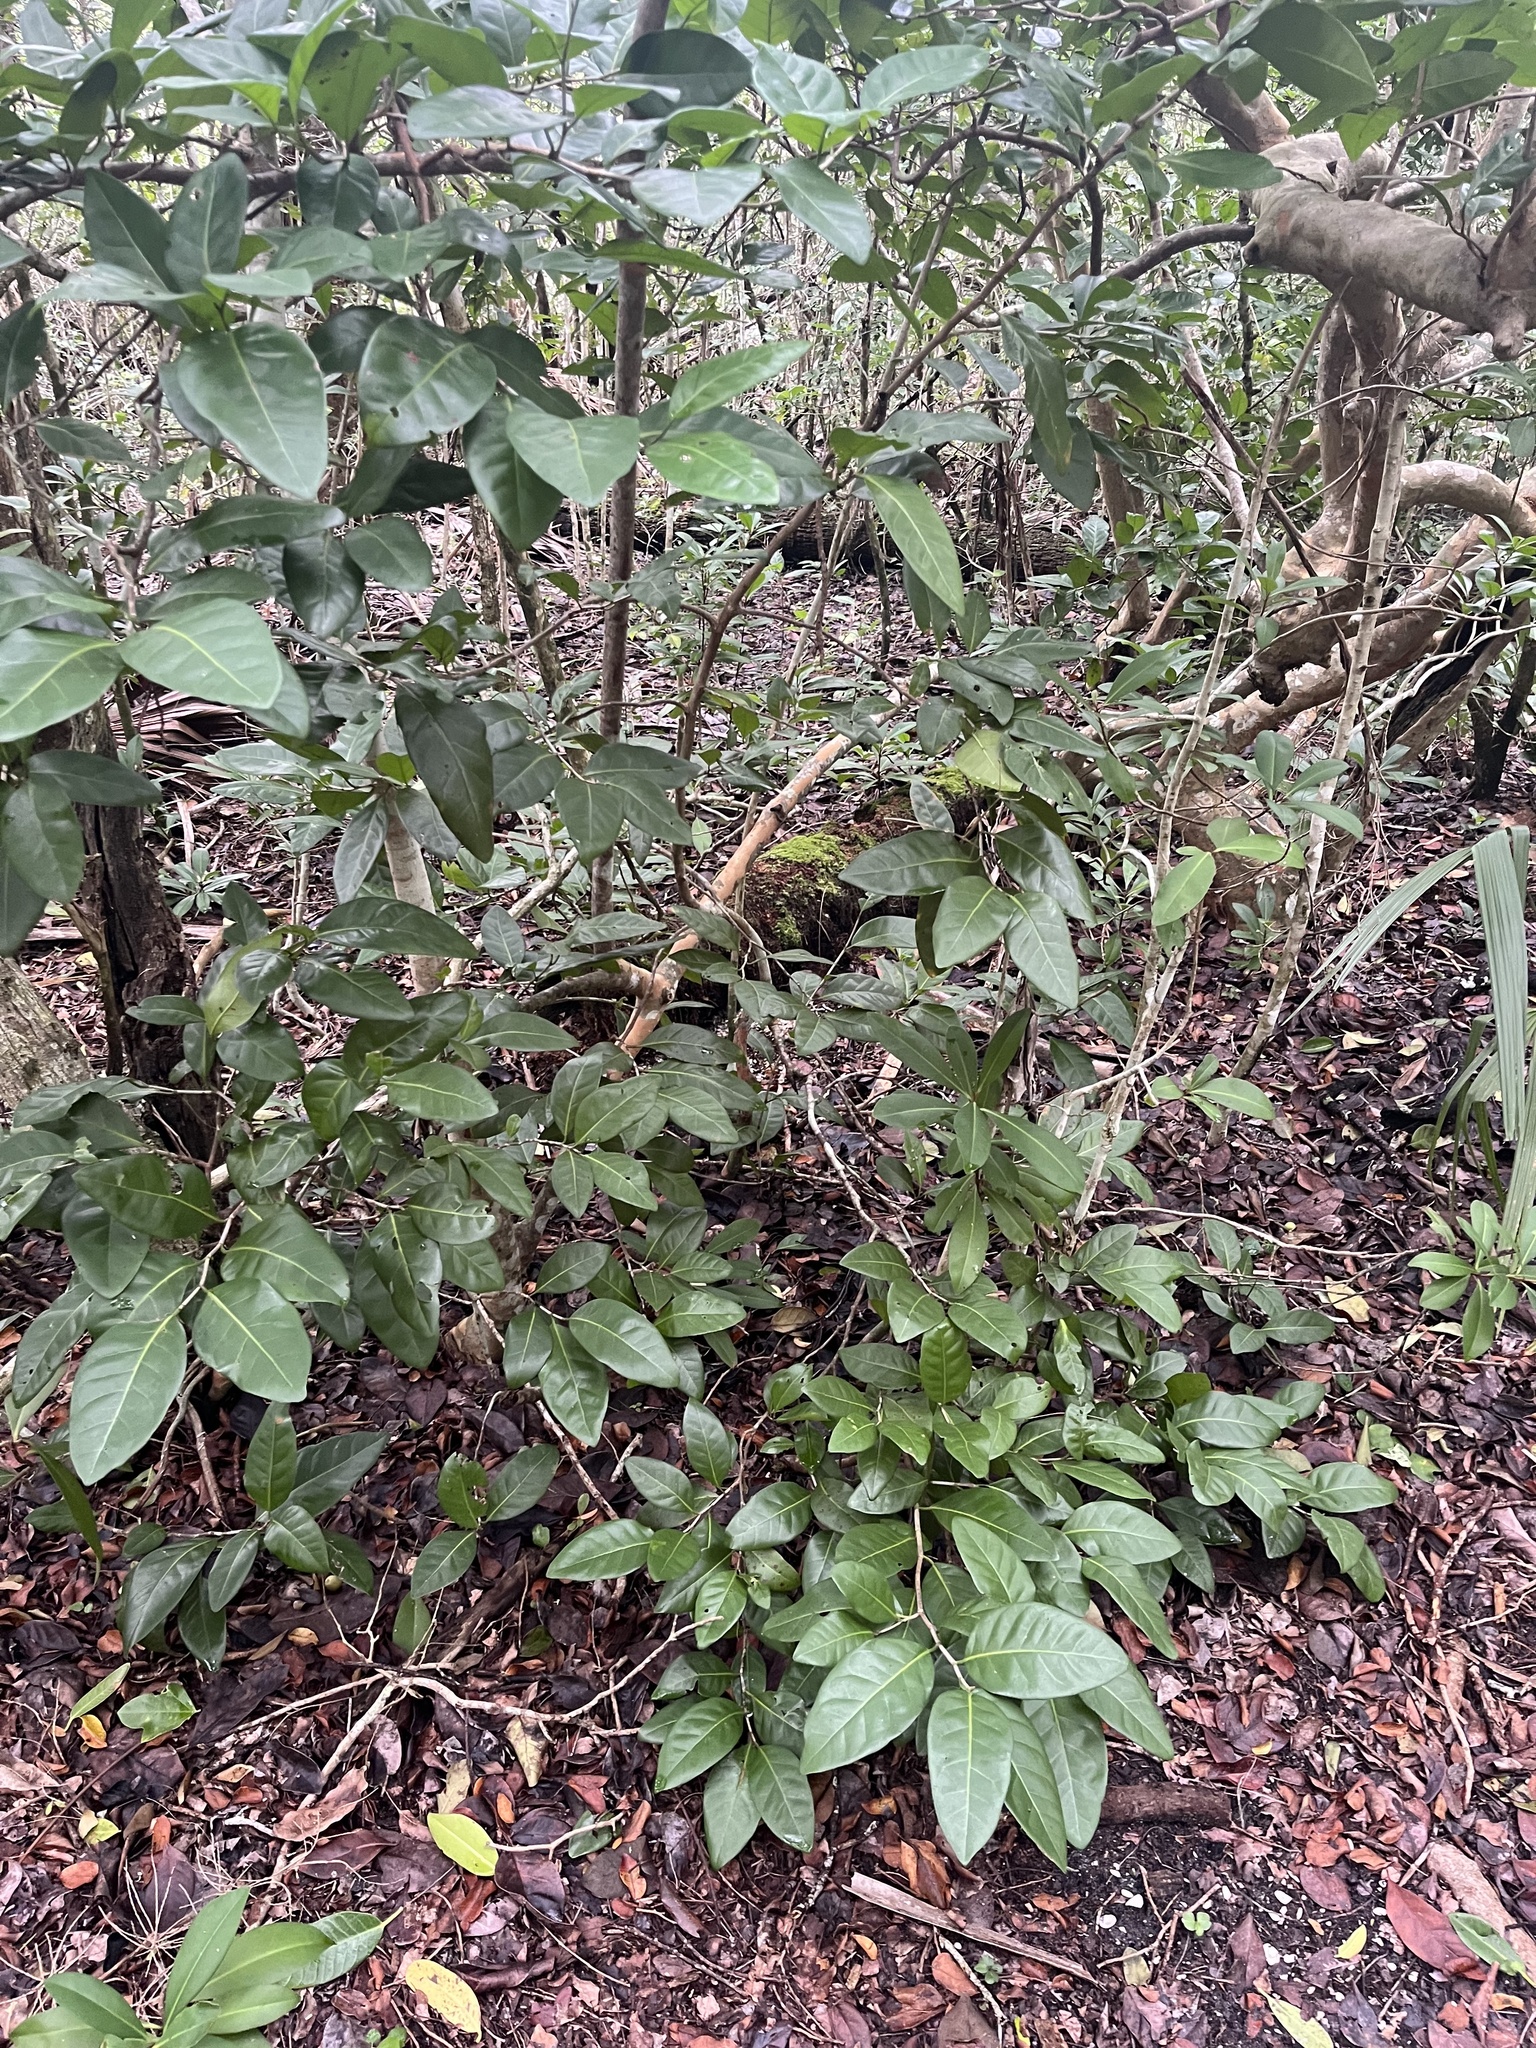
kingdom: Plantae
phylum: Tracheophyta
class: Magnoliopsida
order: Caryophyllales
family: Polygonaceae
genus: Coccoloba
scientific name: Coccoloba diversifolia
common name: Pigeon-plum
